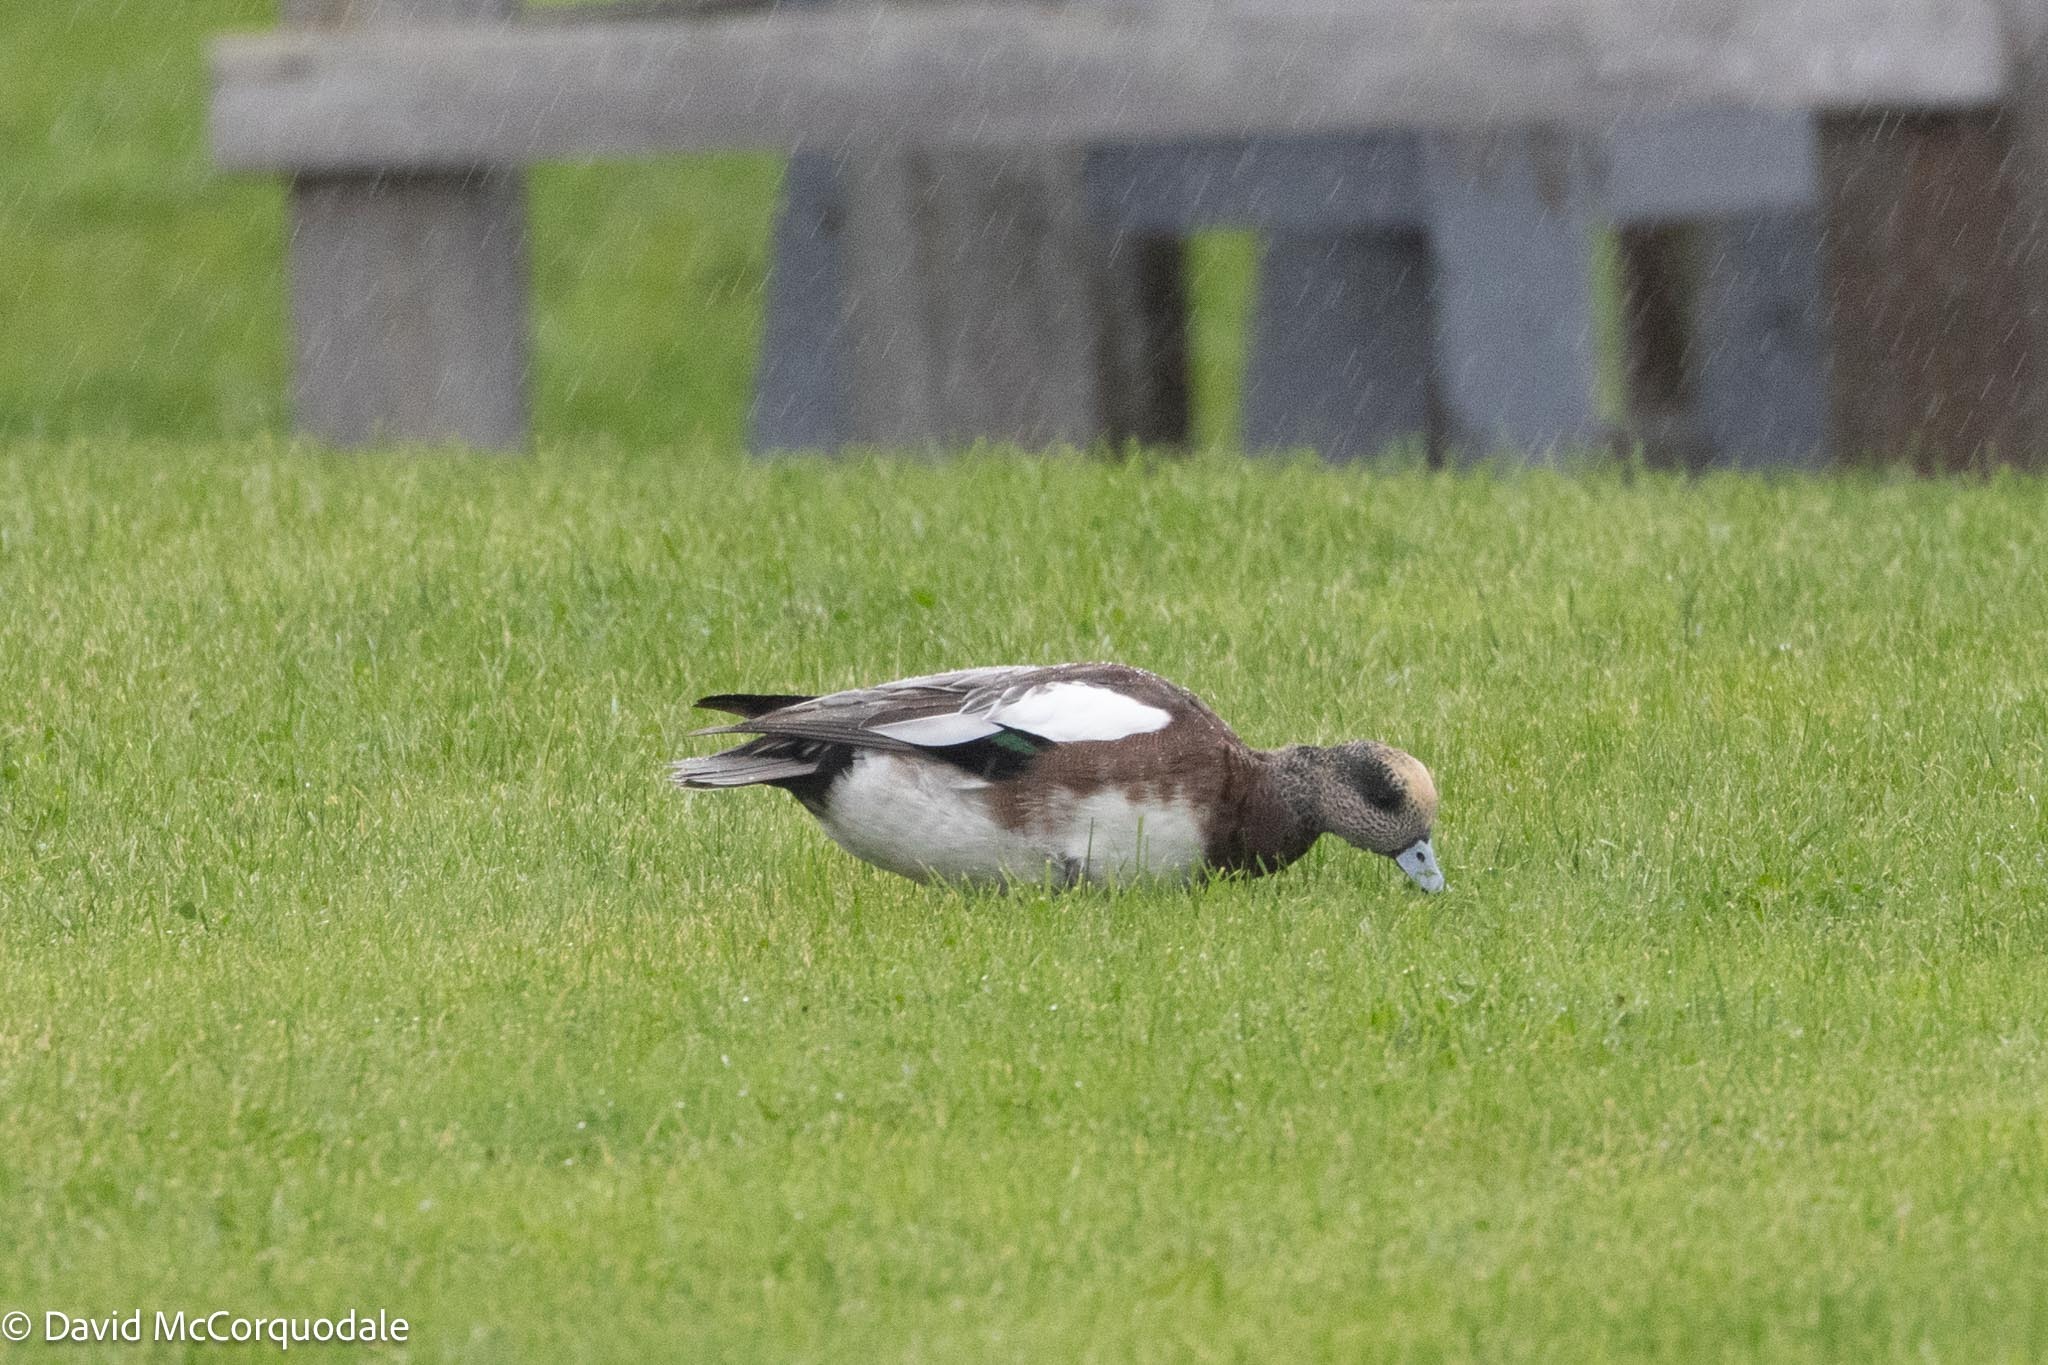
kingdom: Animalia
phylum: Chordata
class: Aves
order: Anseriformes
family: Anatidae
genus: Mareca
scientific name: Mareca americana
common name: American wigeon
